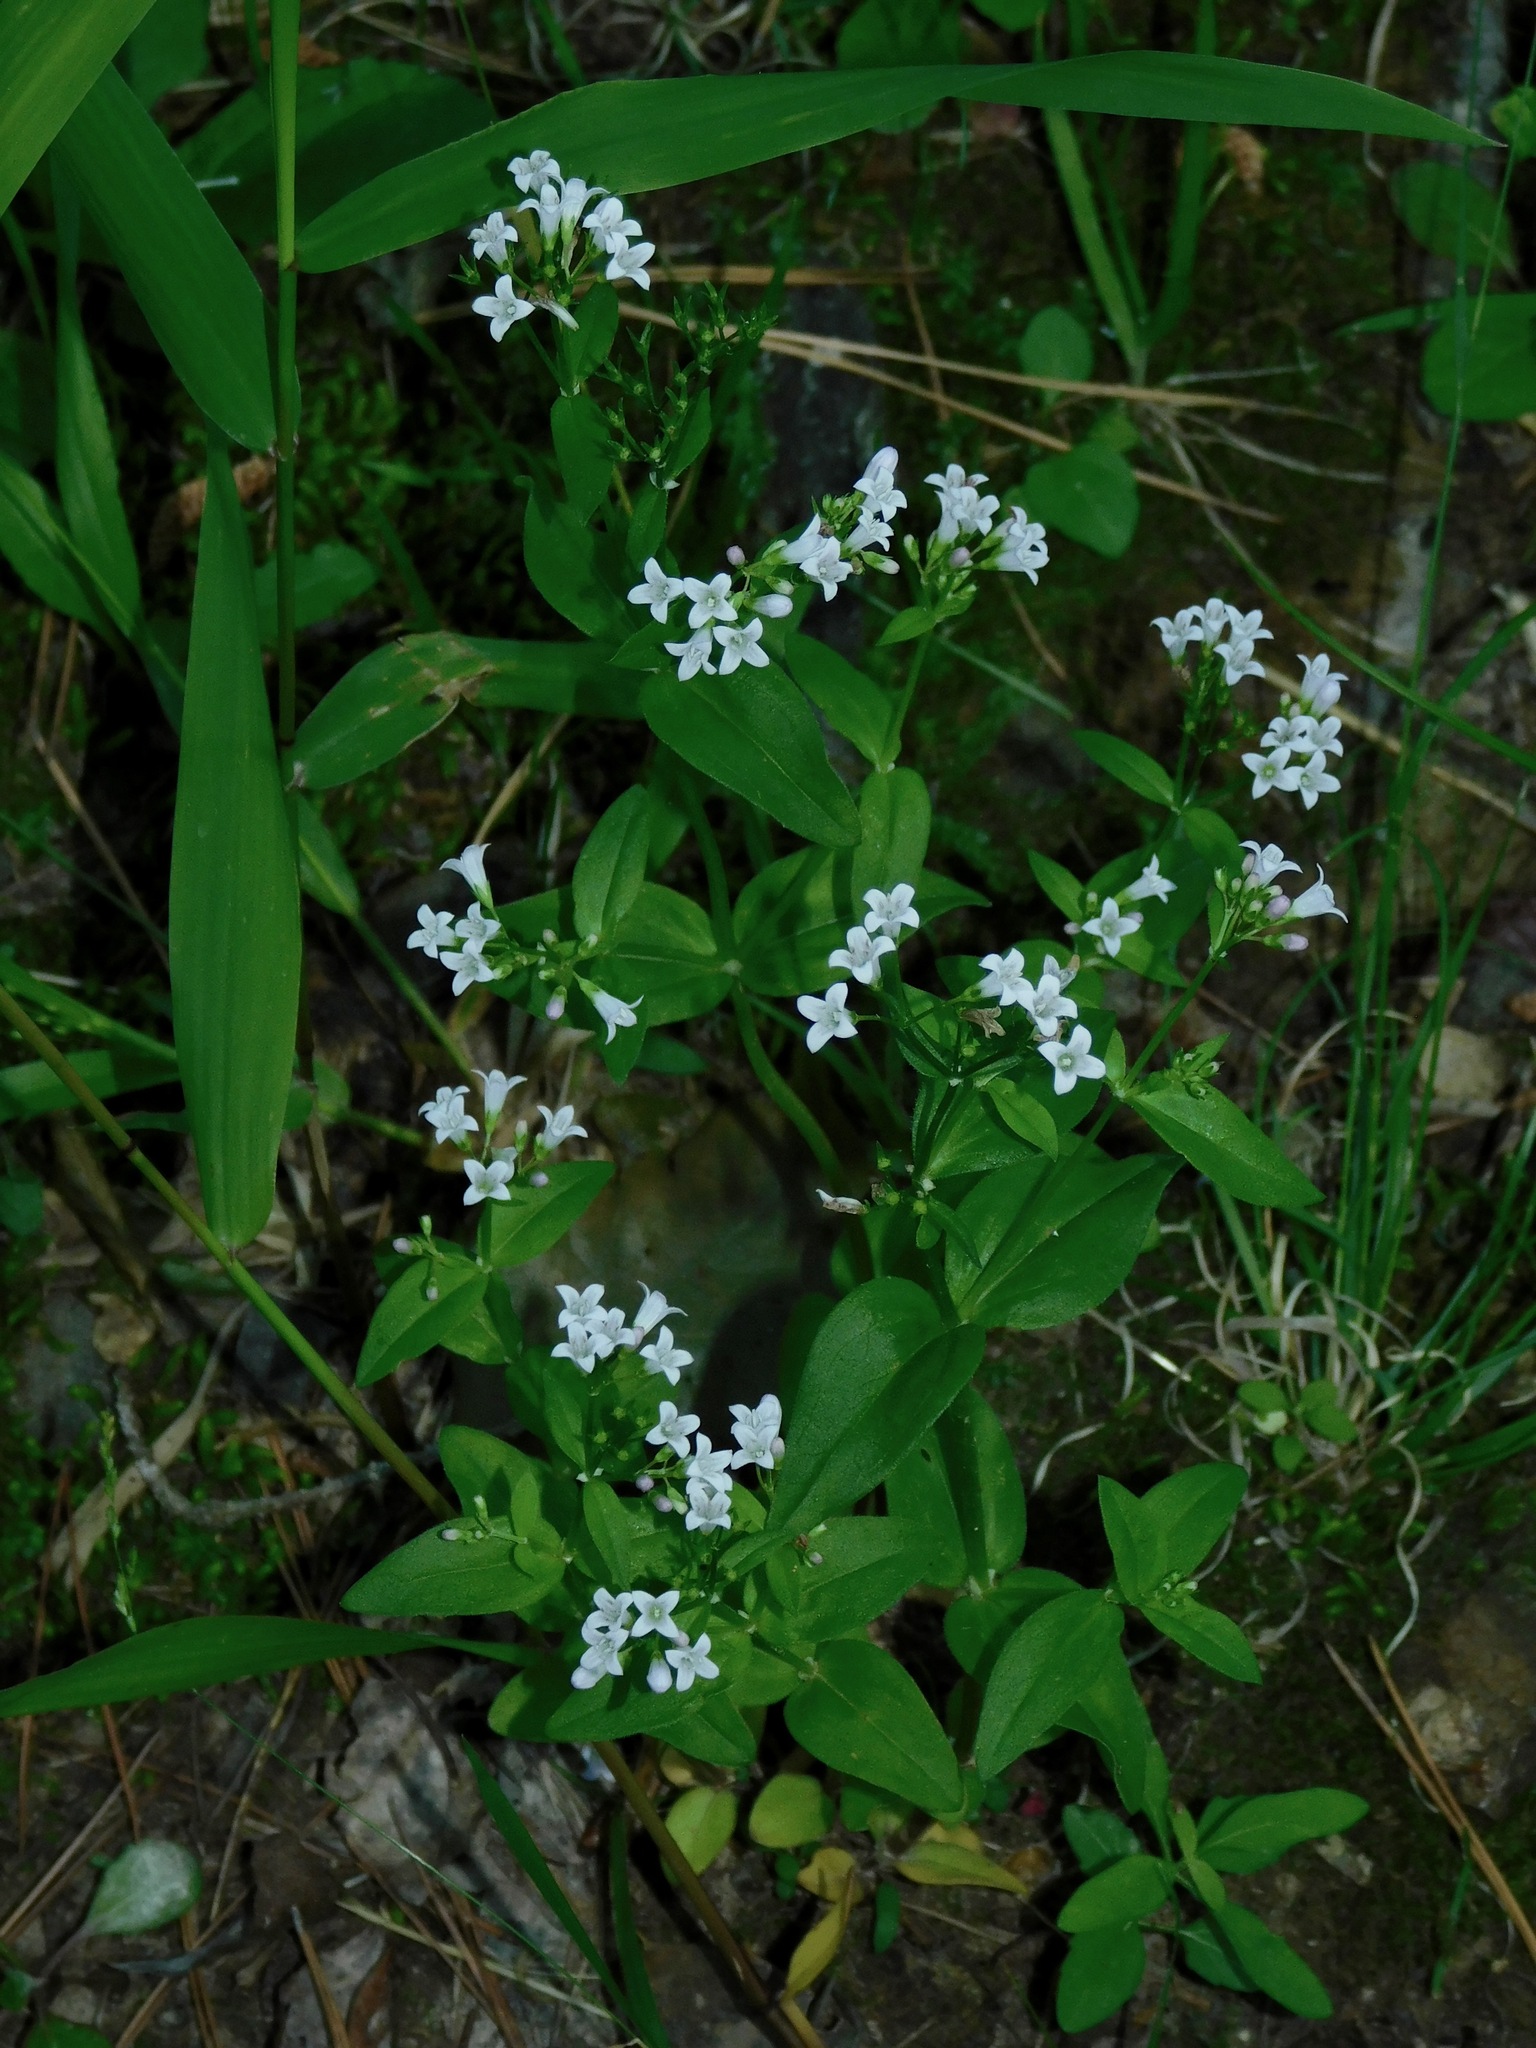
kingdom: Plantae
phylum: Tracheophyta
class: Magnoliopsida
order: Gentianales
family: Rubiaceae
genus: Houstonia
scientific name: Houstonia purpurea
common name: Summer bluet
